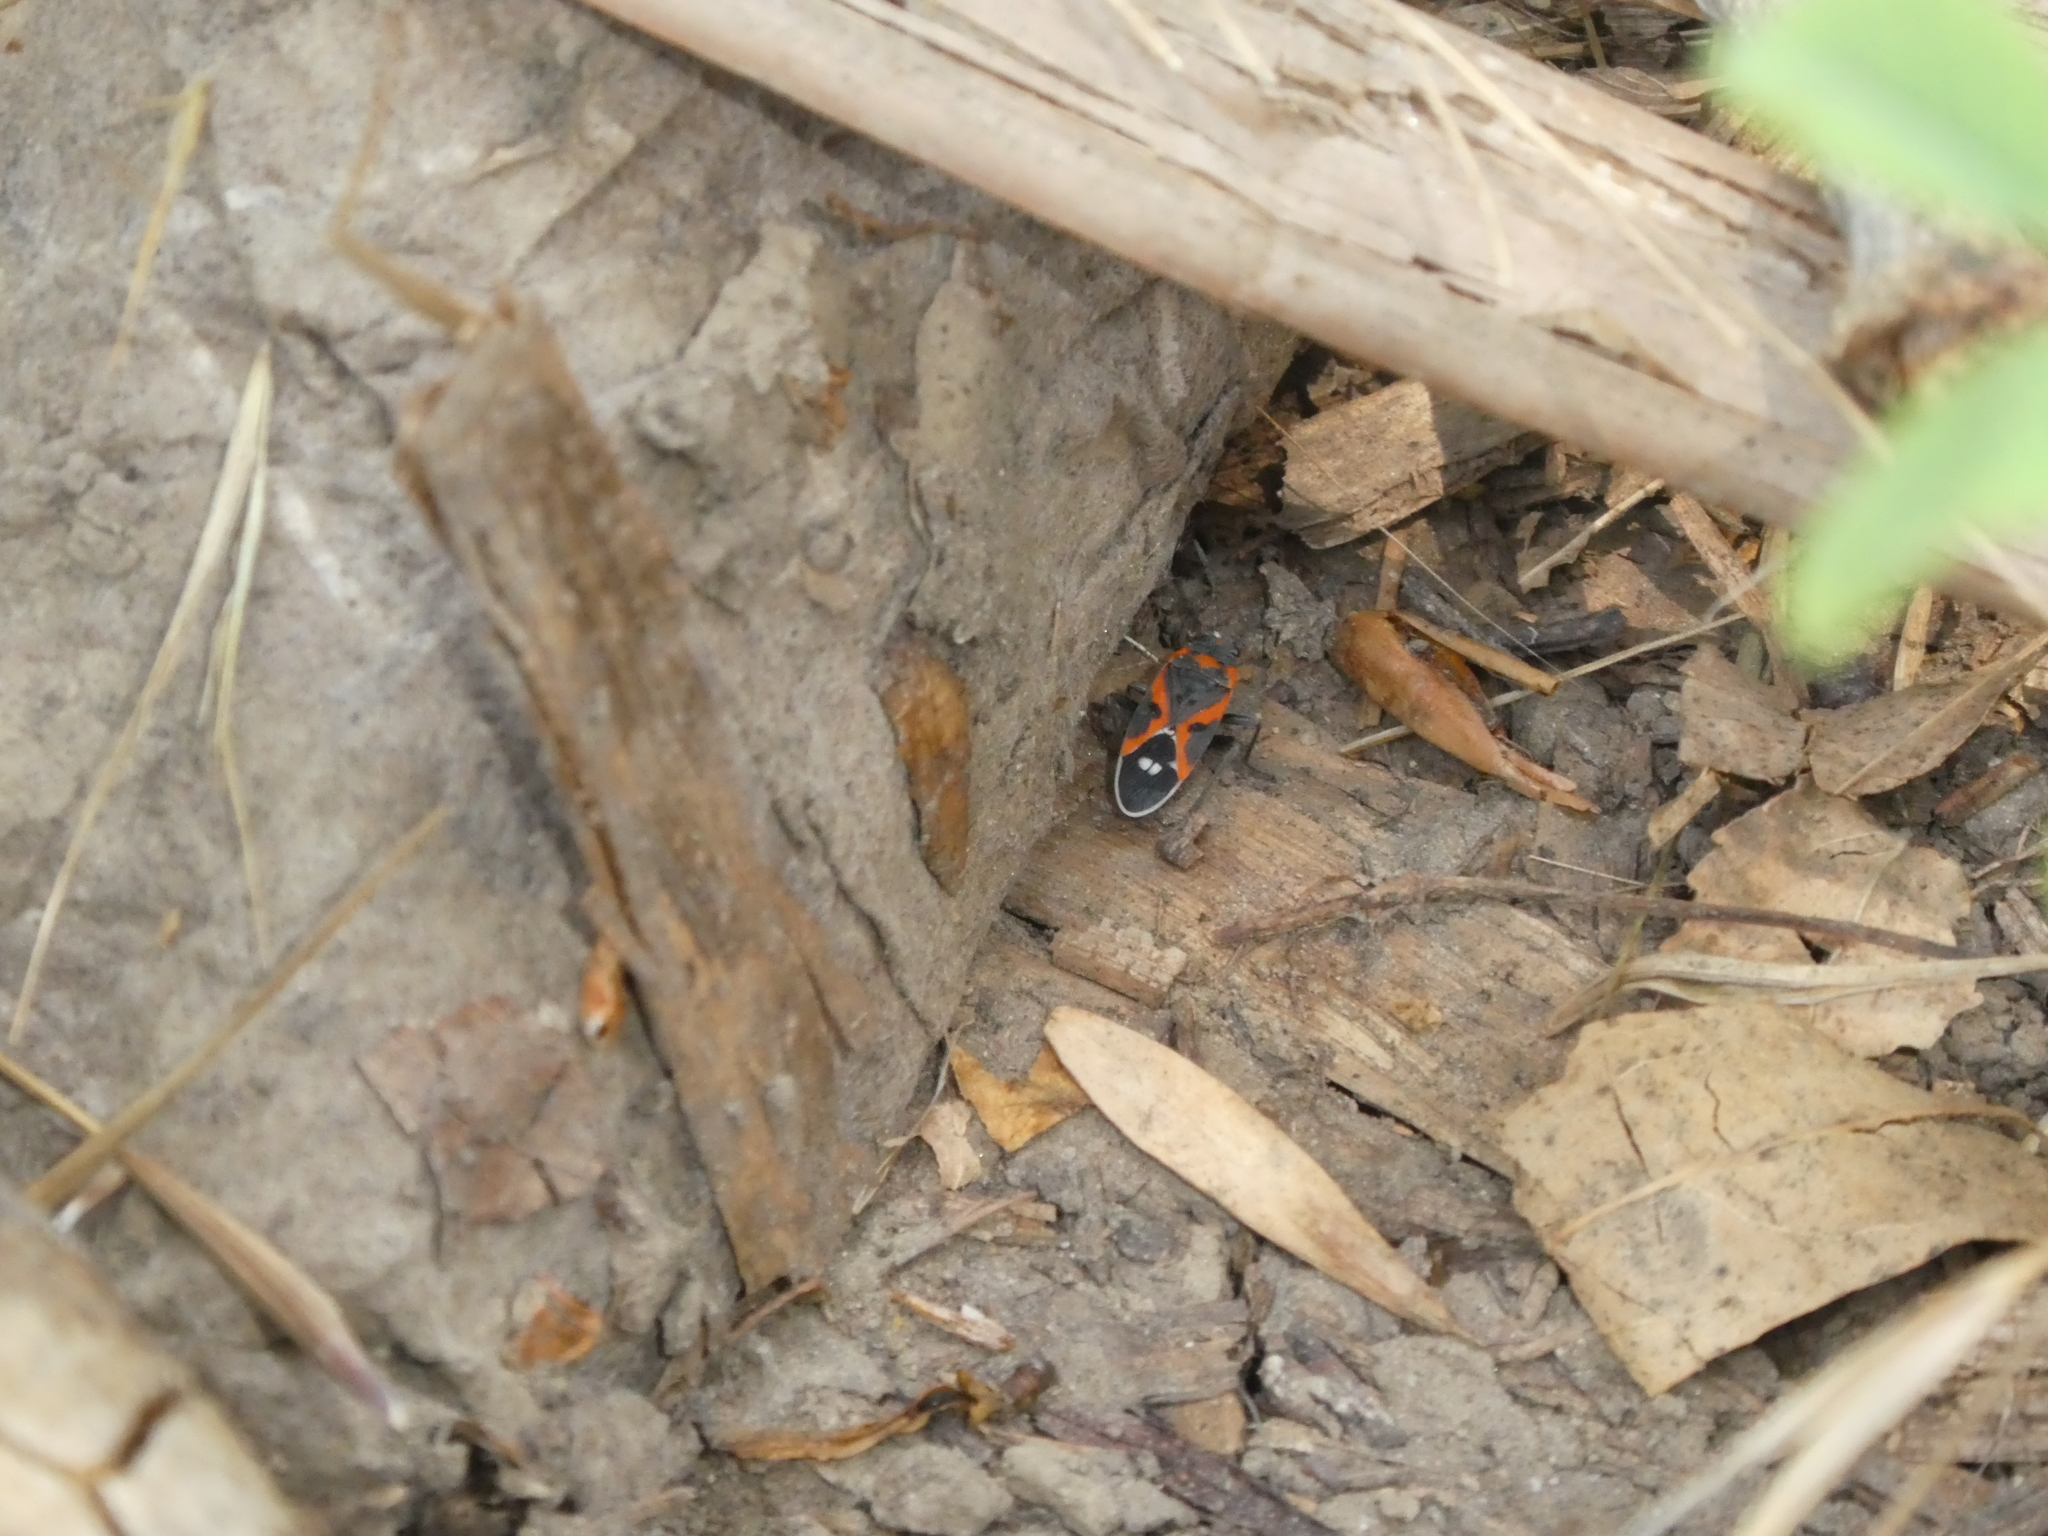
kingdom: Animalia
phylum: Arthropoda
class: Insecta
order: Hemiptera
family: Lygaeidae
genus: Lygaeus
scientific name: Lygaeus kalmii
